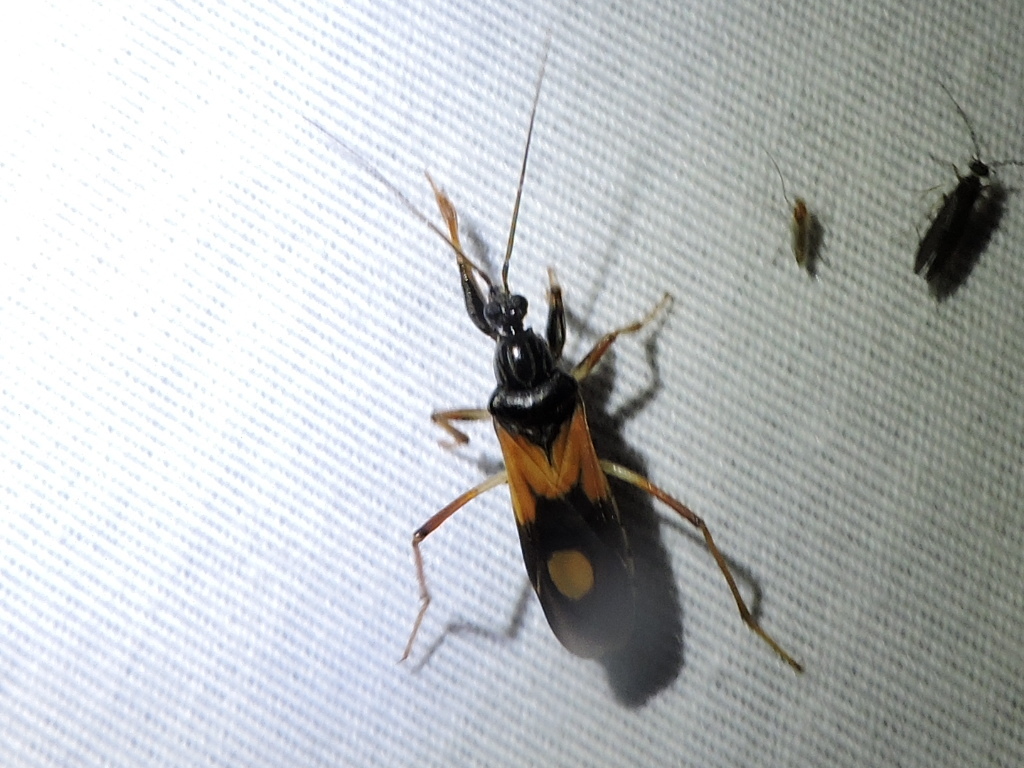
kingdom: Animalia
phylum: Arthropoda
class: Insecta
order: Hemiptera
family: Reduviidae
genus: Rasahus
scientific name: Rasahus biguttatus
